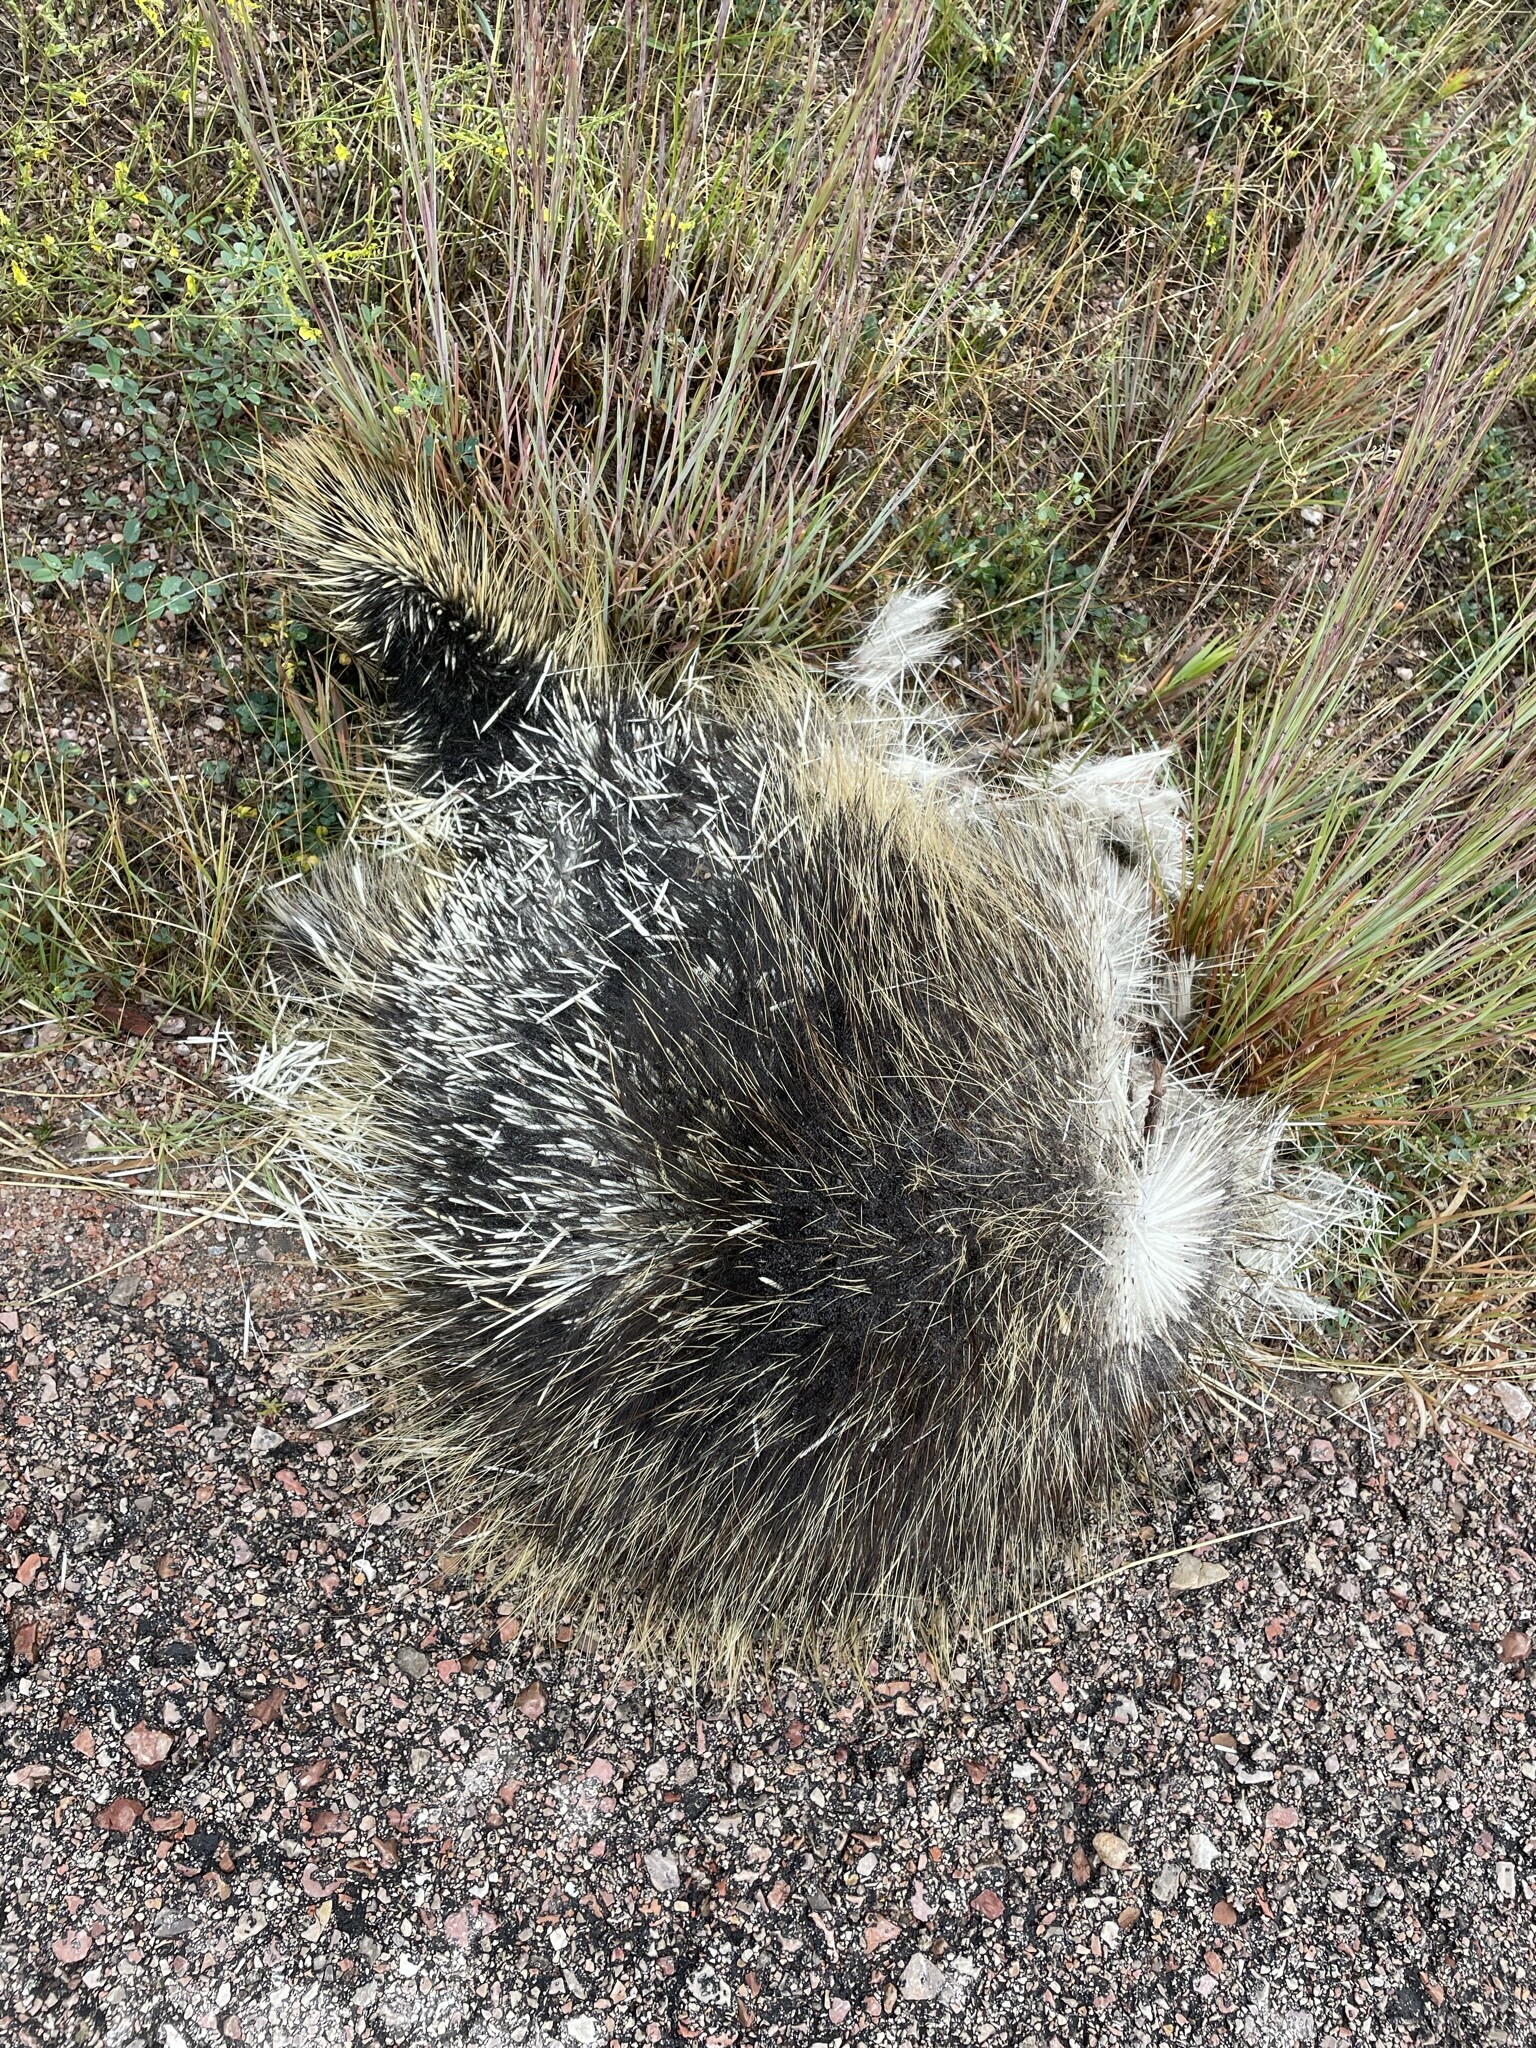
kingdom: Animalia
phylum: Chordata
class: Mammalia
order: Rodentia
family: Erethizontidae
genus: Erethizon
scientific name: Erethizon dorsatus
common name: North american porcupine
